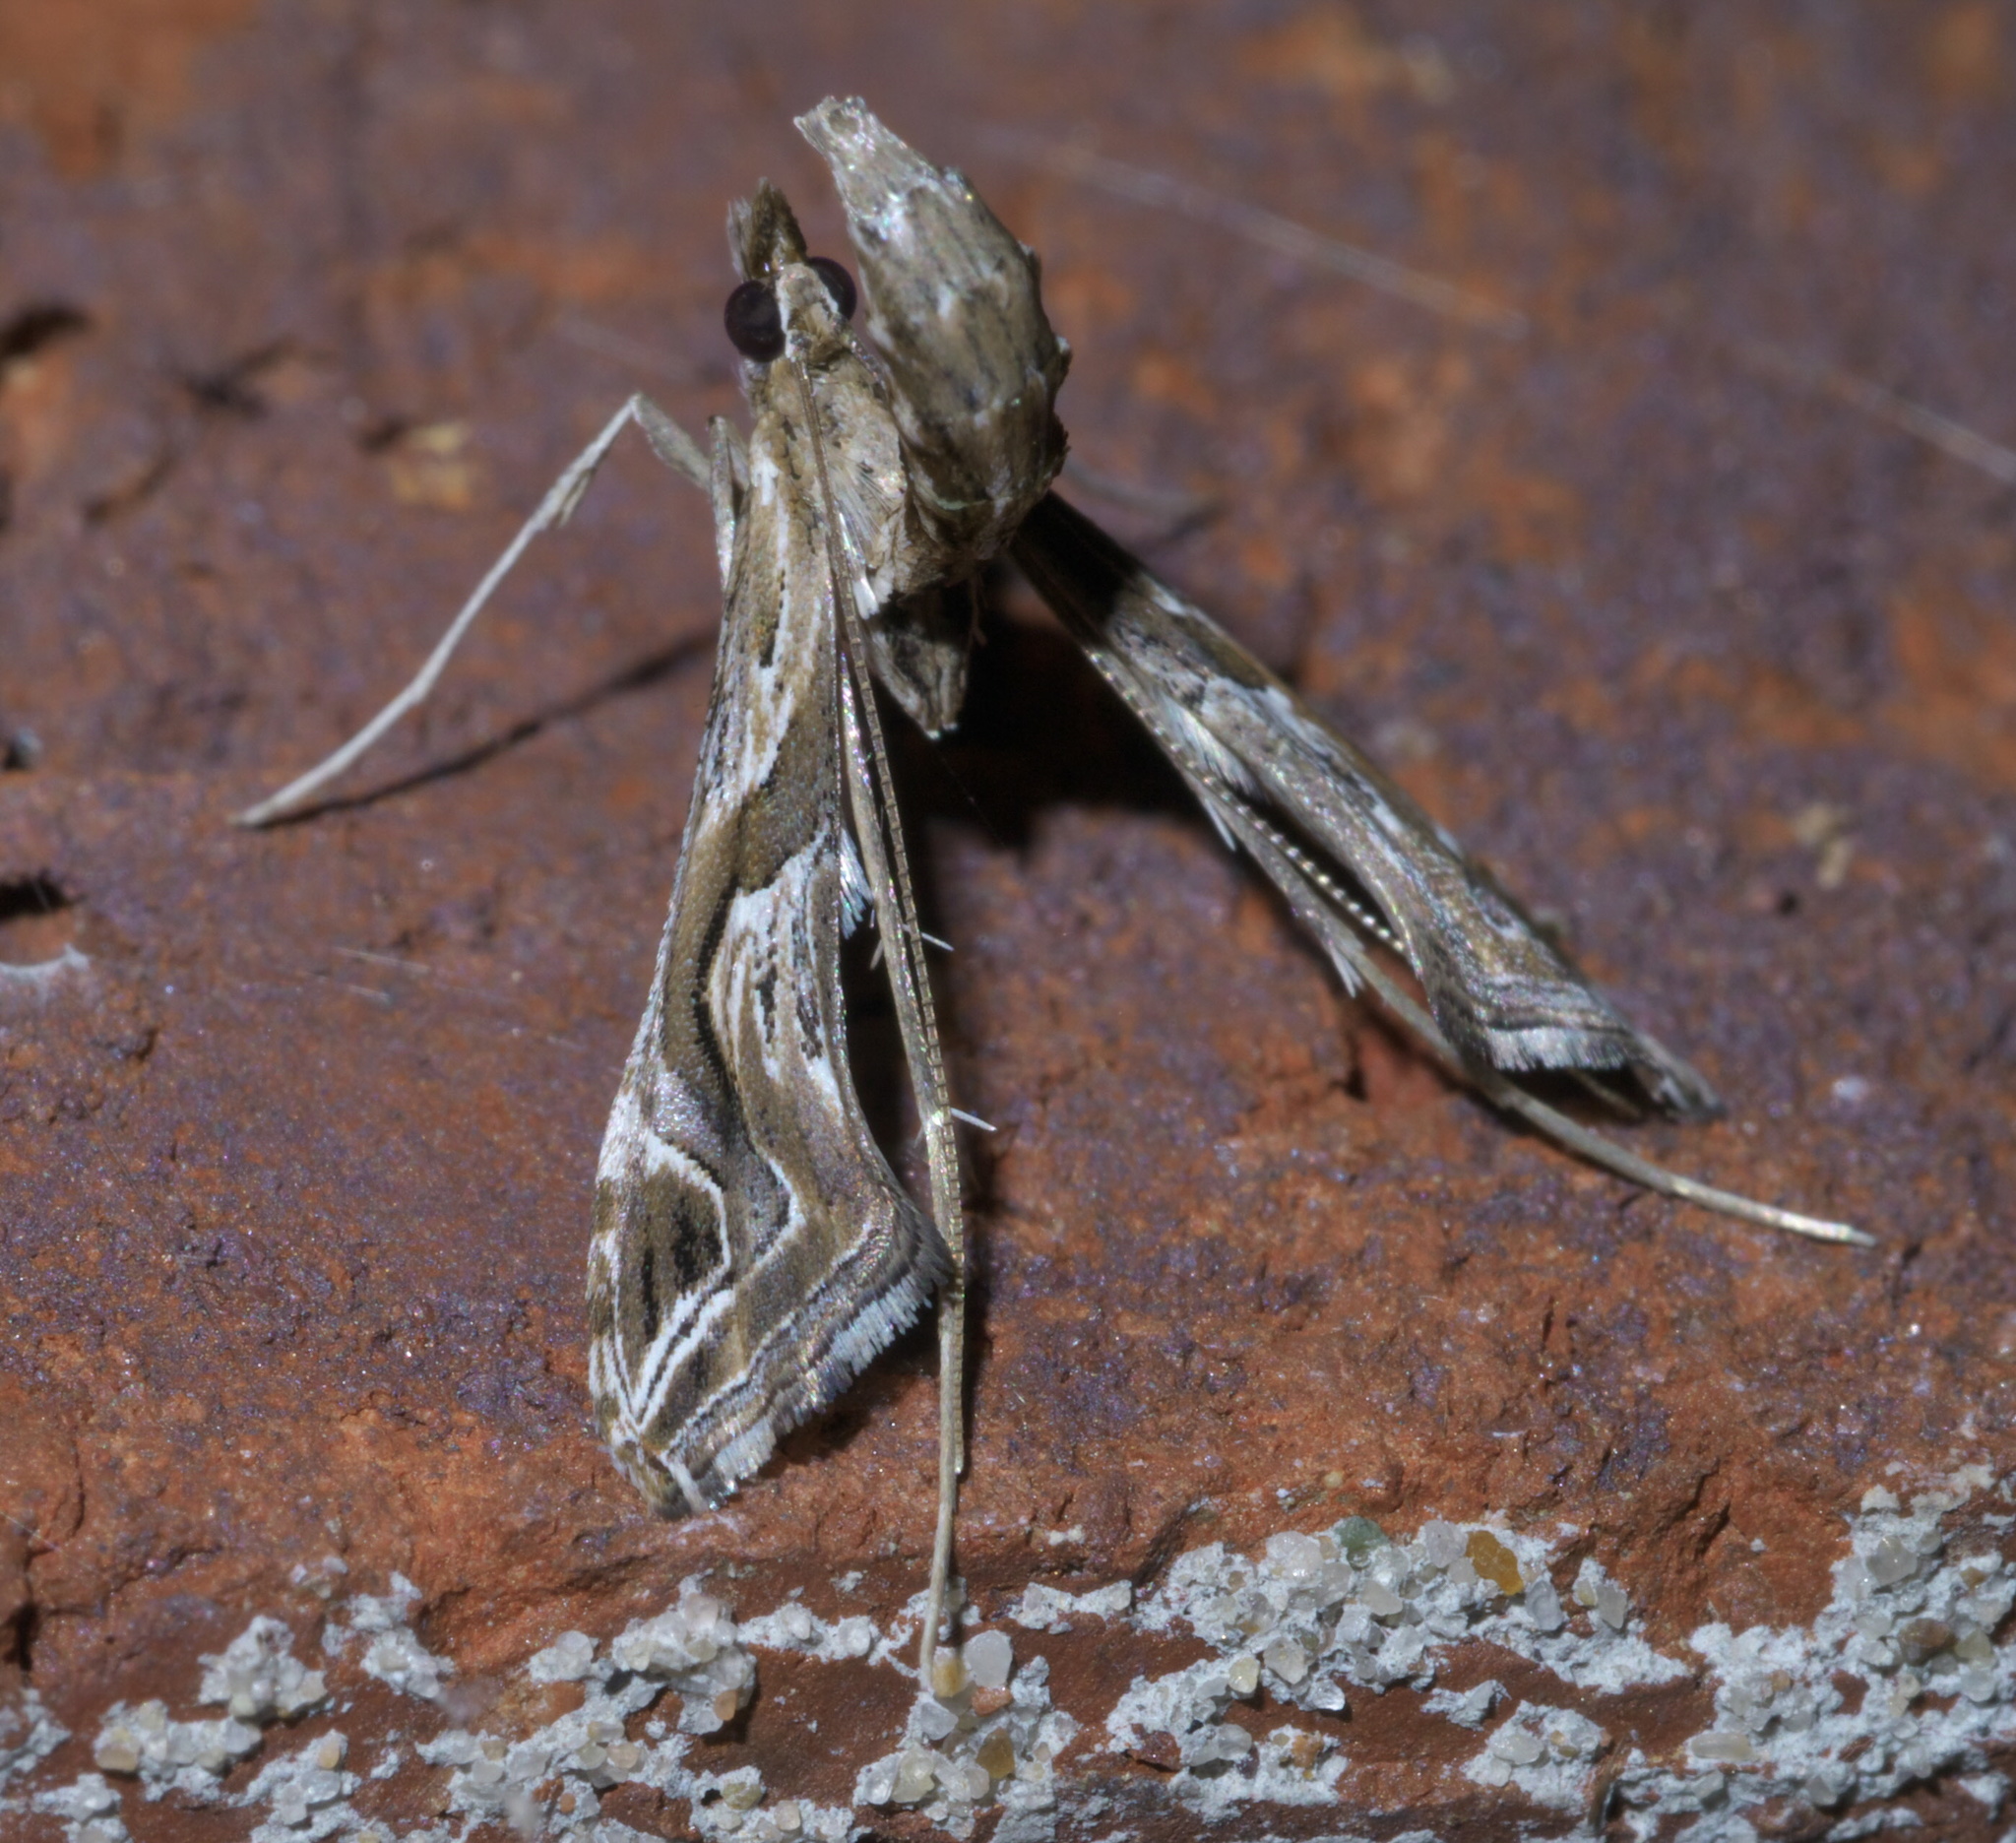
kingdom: Animalia
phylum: Arthropoda
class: Insecta
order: Lepidoptera
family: Crambidae
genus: Lineodes
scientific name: Lineodes integra
